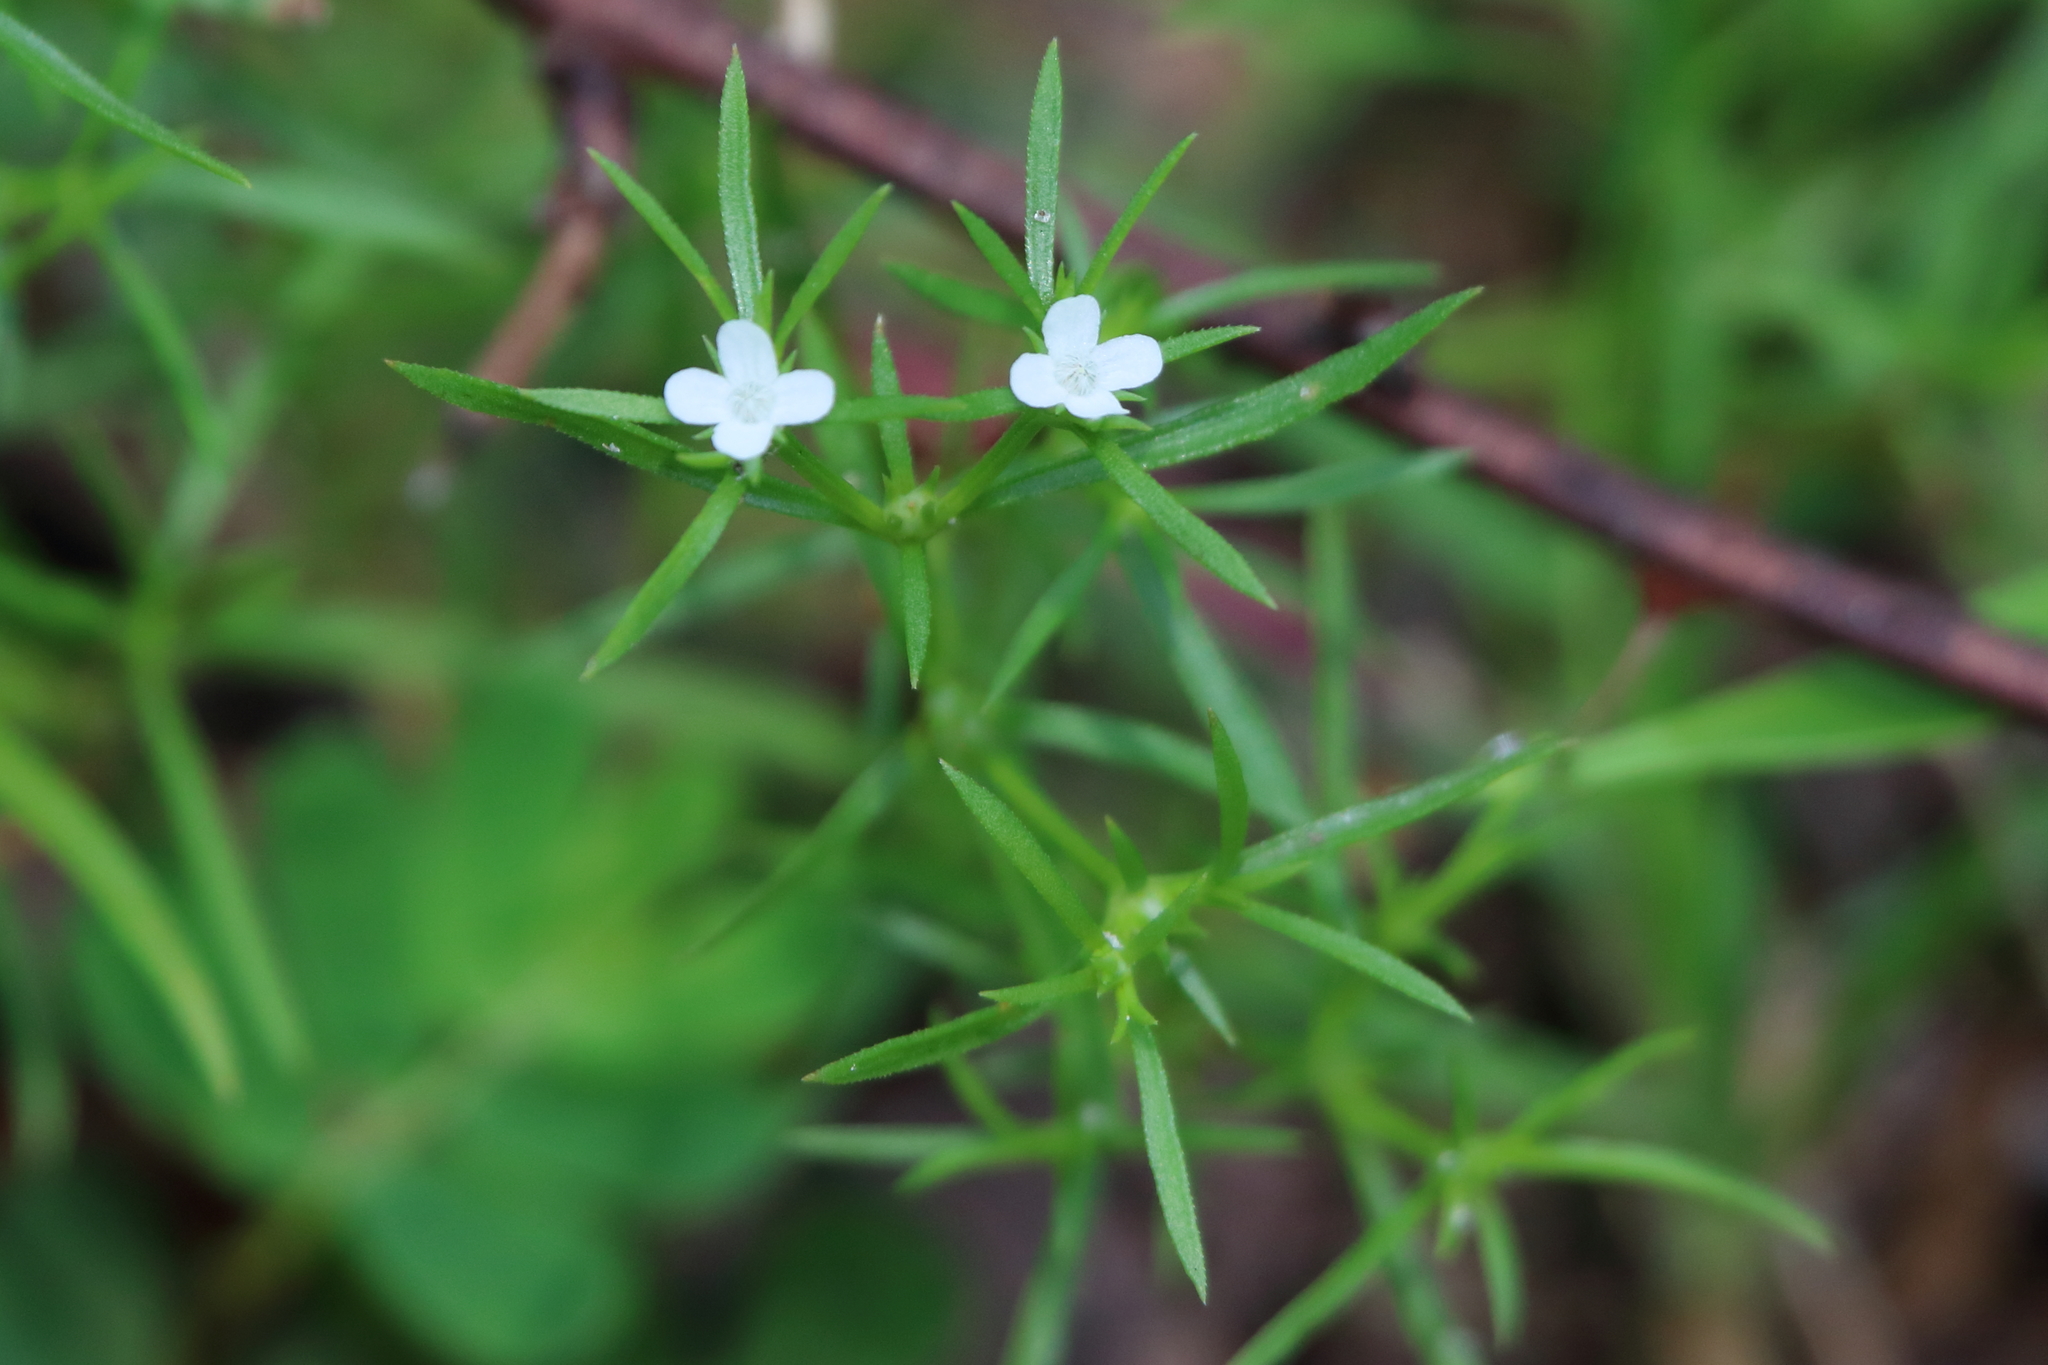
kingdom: Plantae
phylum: Tracheophyta
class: Magnoliopsida
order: Lamiales
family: Tetrachondraceae
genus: Polypremum
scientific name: Polypremum procumbens
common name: Juniper-leaf
